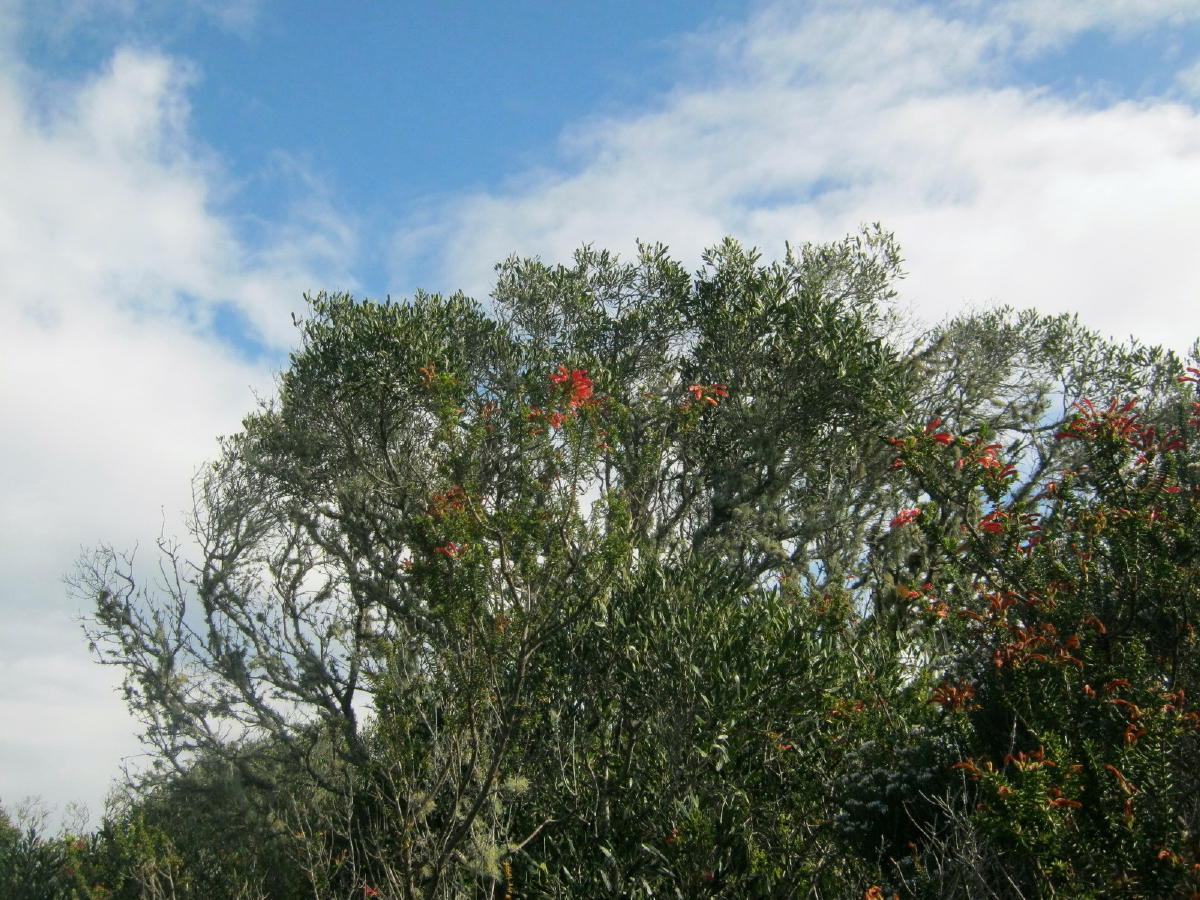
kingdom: Plantae
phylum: Tracheophyta
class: Magnoliopsida
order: Ericales
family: Ericaceae
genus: Erica
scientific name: Erica glandulosa
